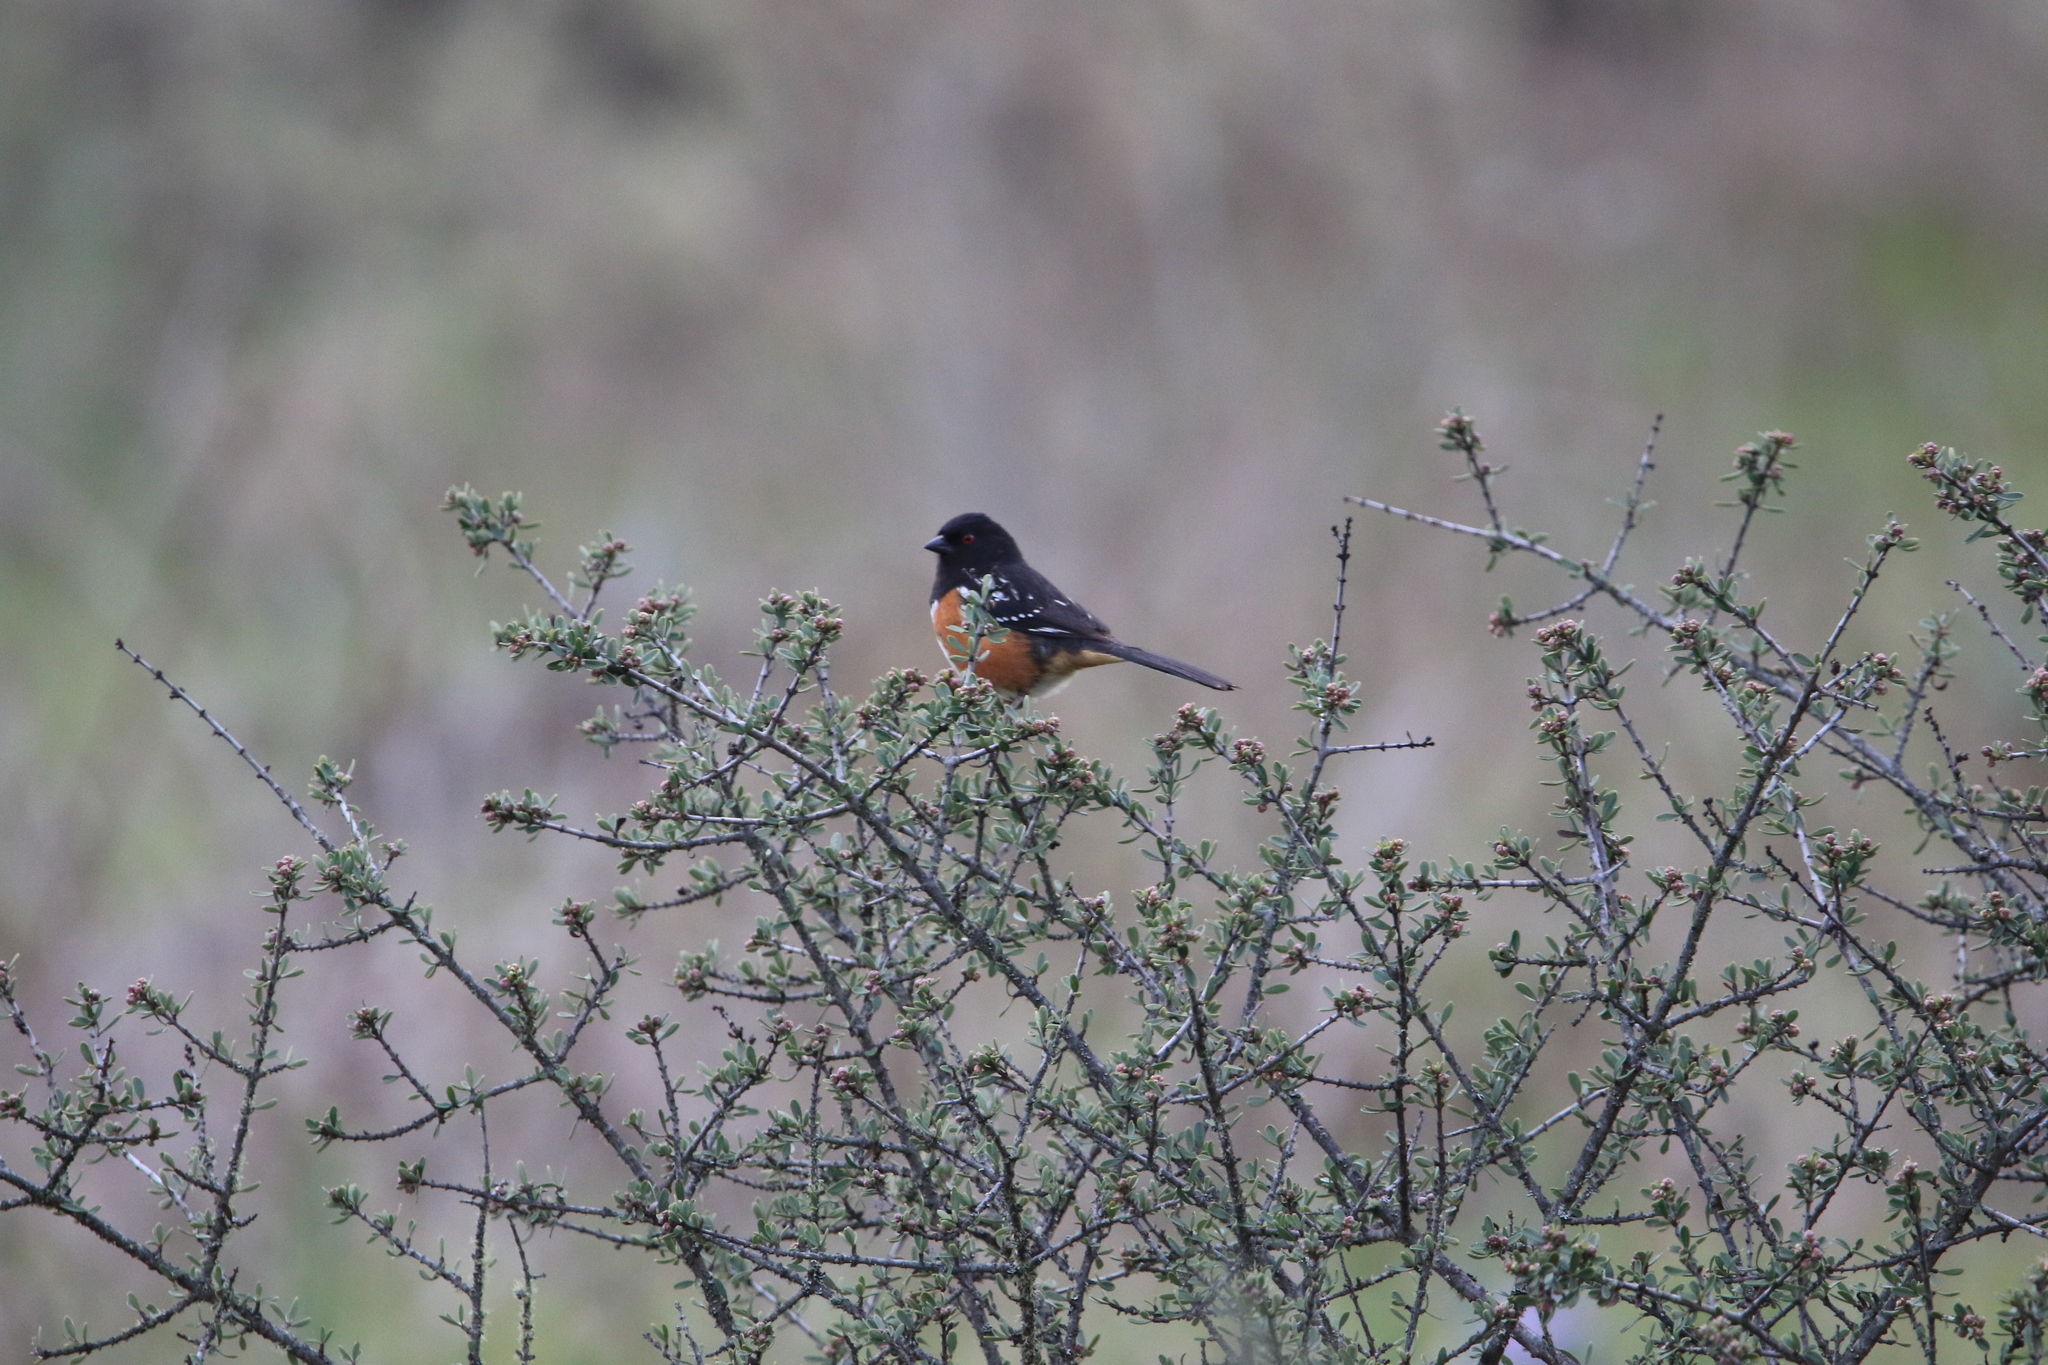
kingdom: Animalia
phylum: Chordata
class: Aves
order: Passeriformes
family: Passerellidae
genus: Pipilo
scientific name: Pipilo maculatus
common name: Spotted towhee
